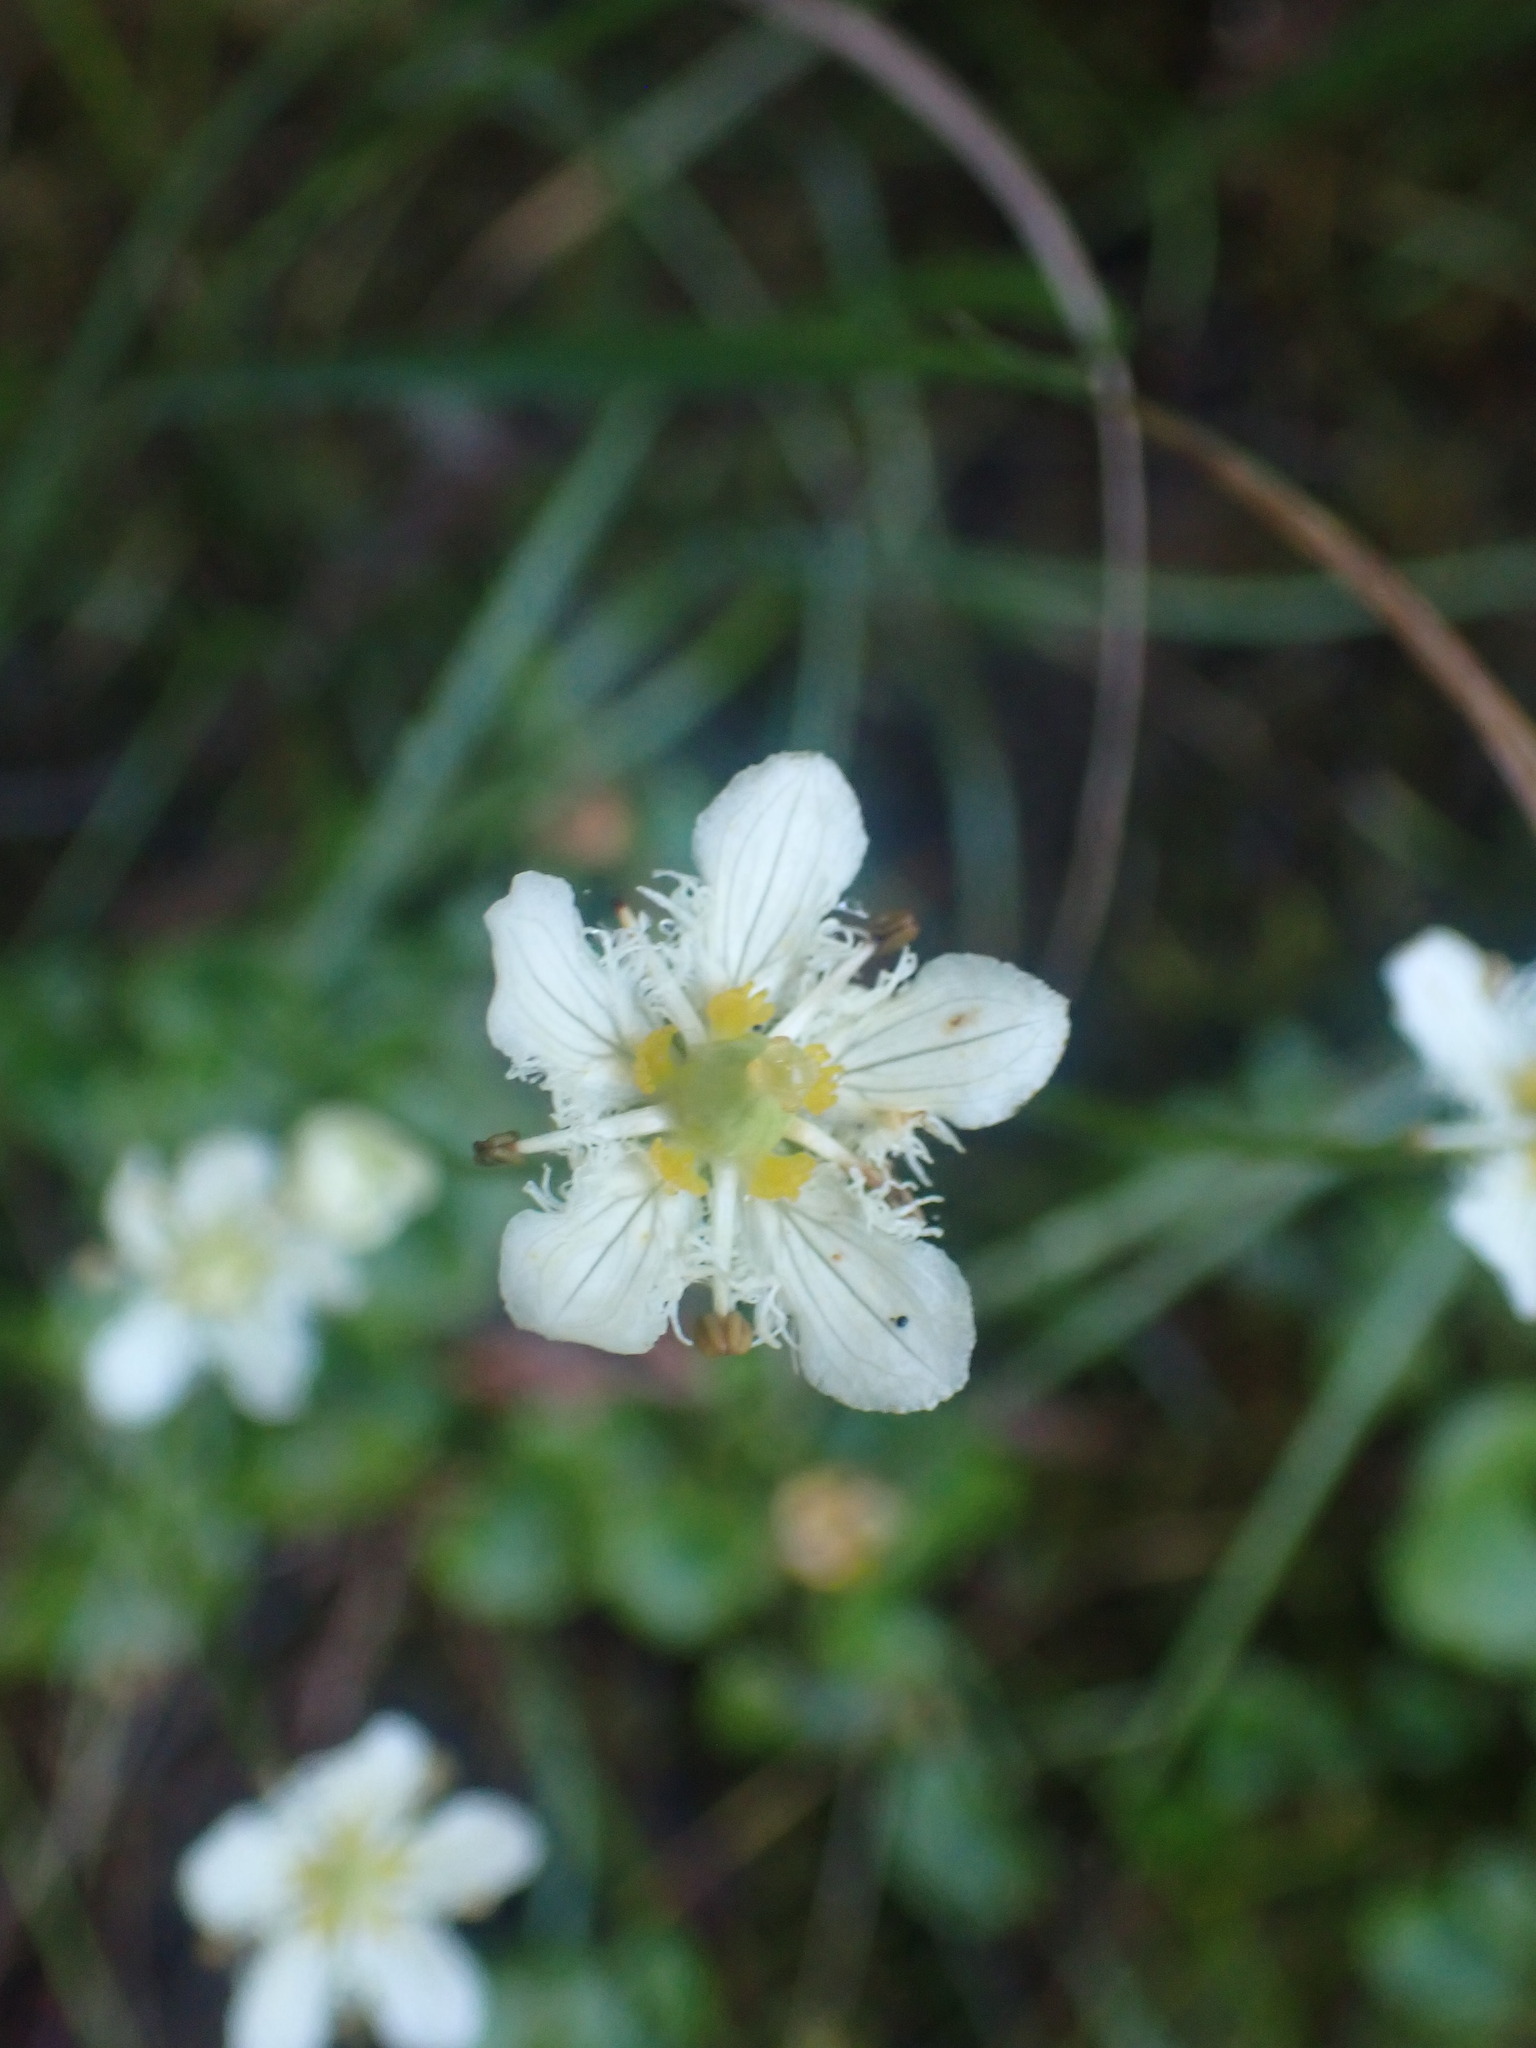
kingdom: Plantae
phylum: Tracheophyta
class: Magnoliopsida
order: Celastrales
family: Parnassiaceae
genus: Parnassia
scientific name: Parnassia fimbriata
